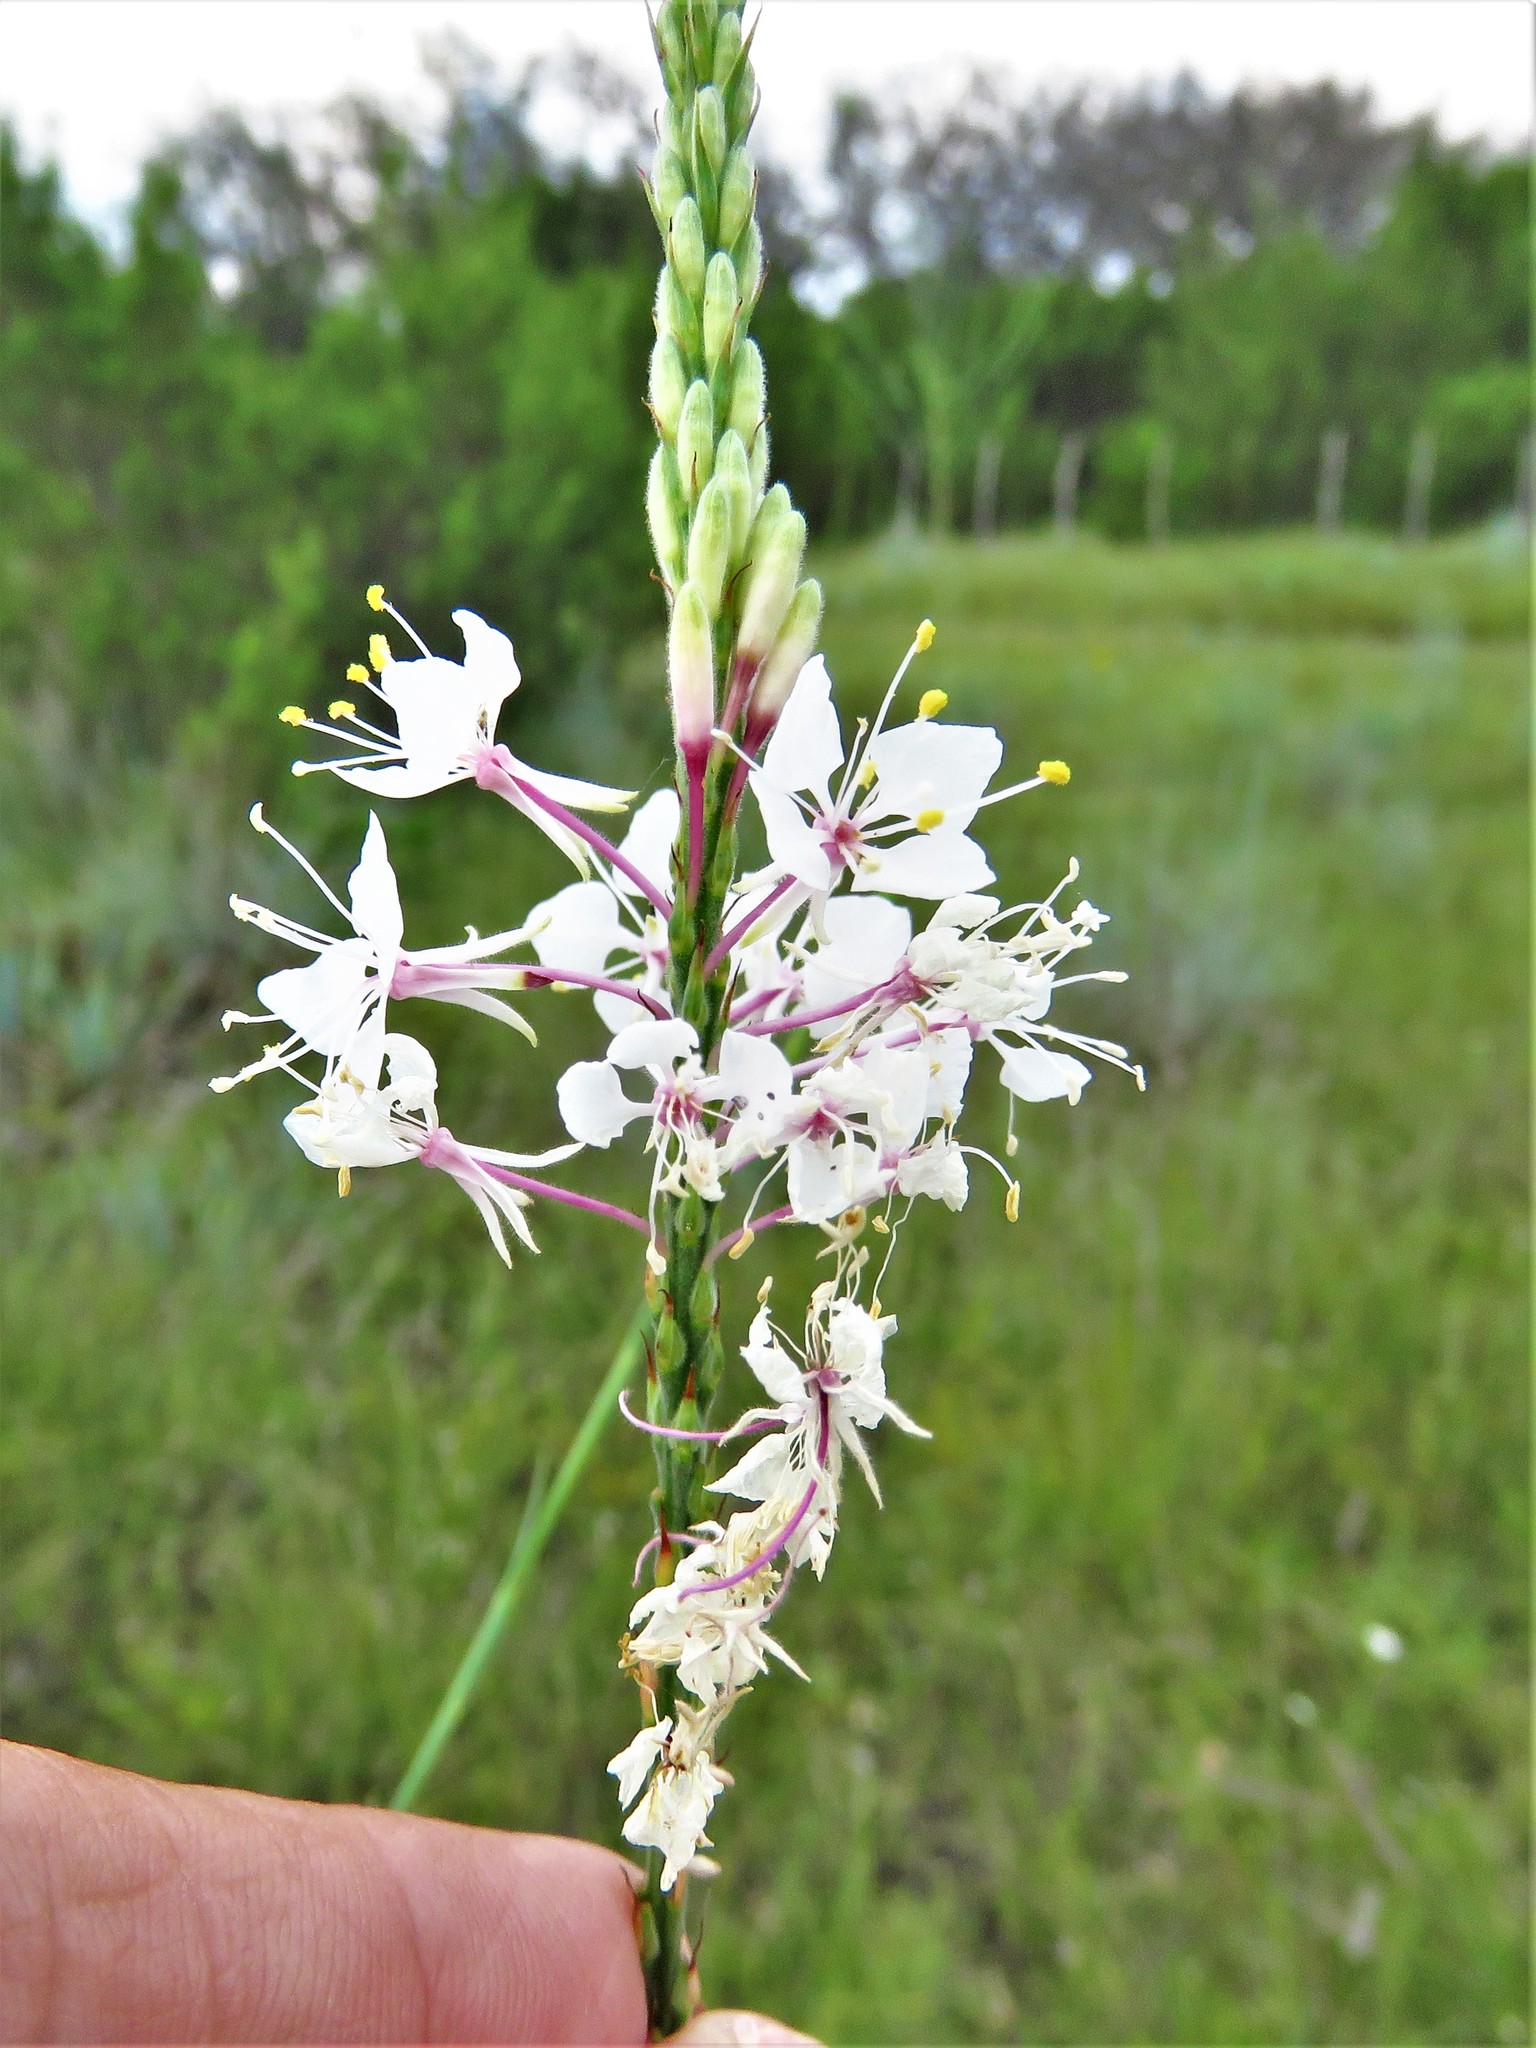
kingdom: Plantae
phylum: Tracheophyta
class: Magnoliopsida
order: Myrtales
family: Onagraceae
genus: Oenothera
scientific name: Oenothera glaucifolia
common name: False gaura
